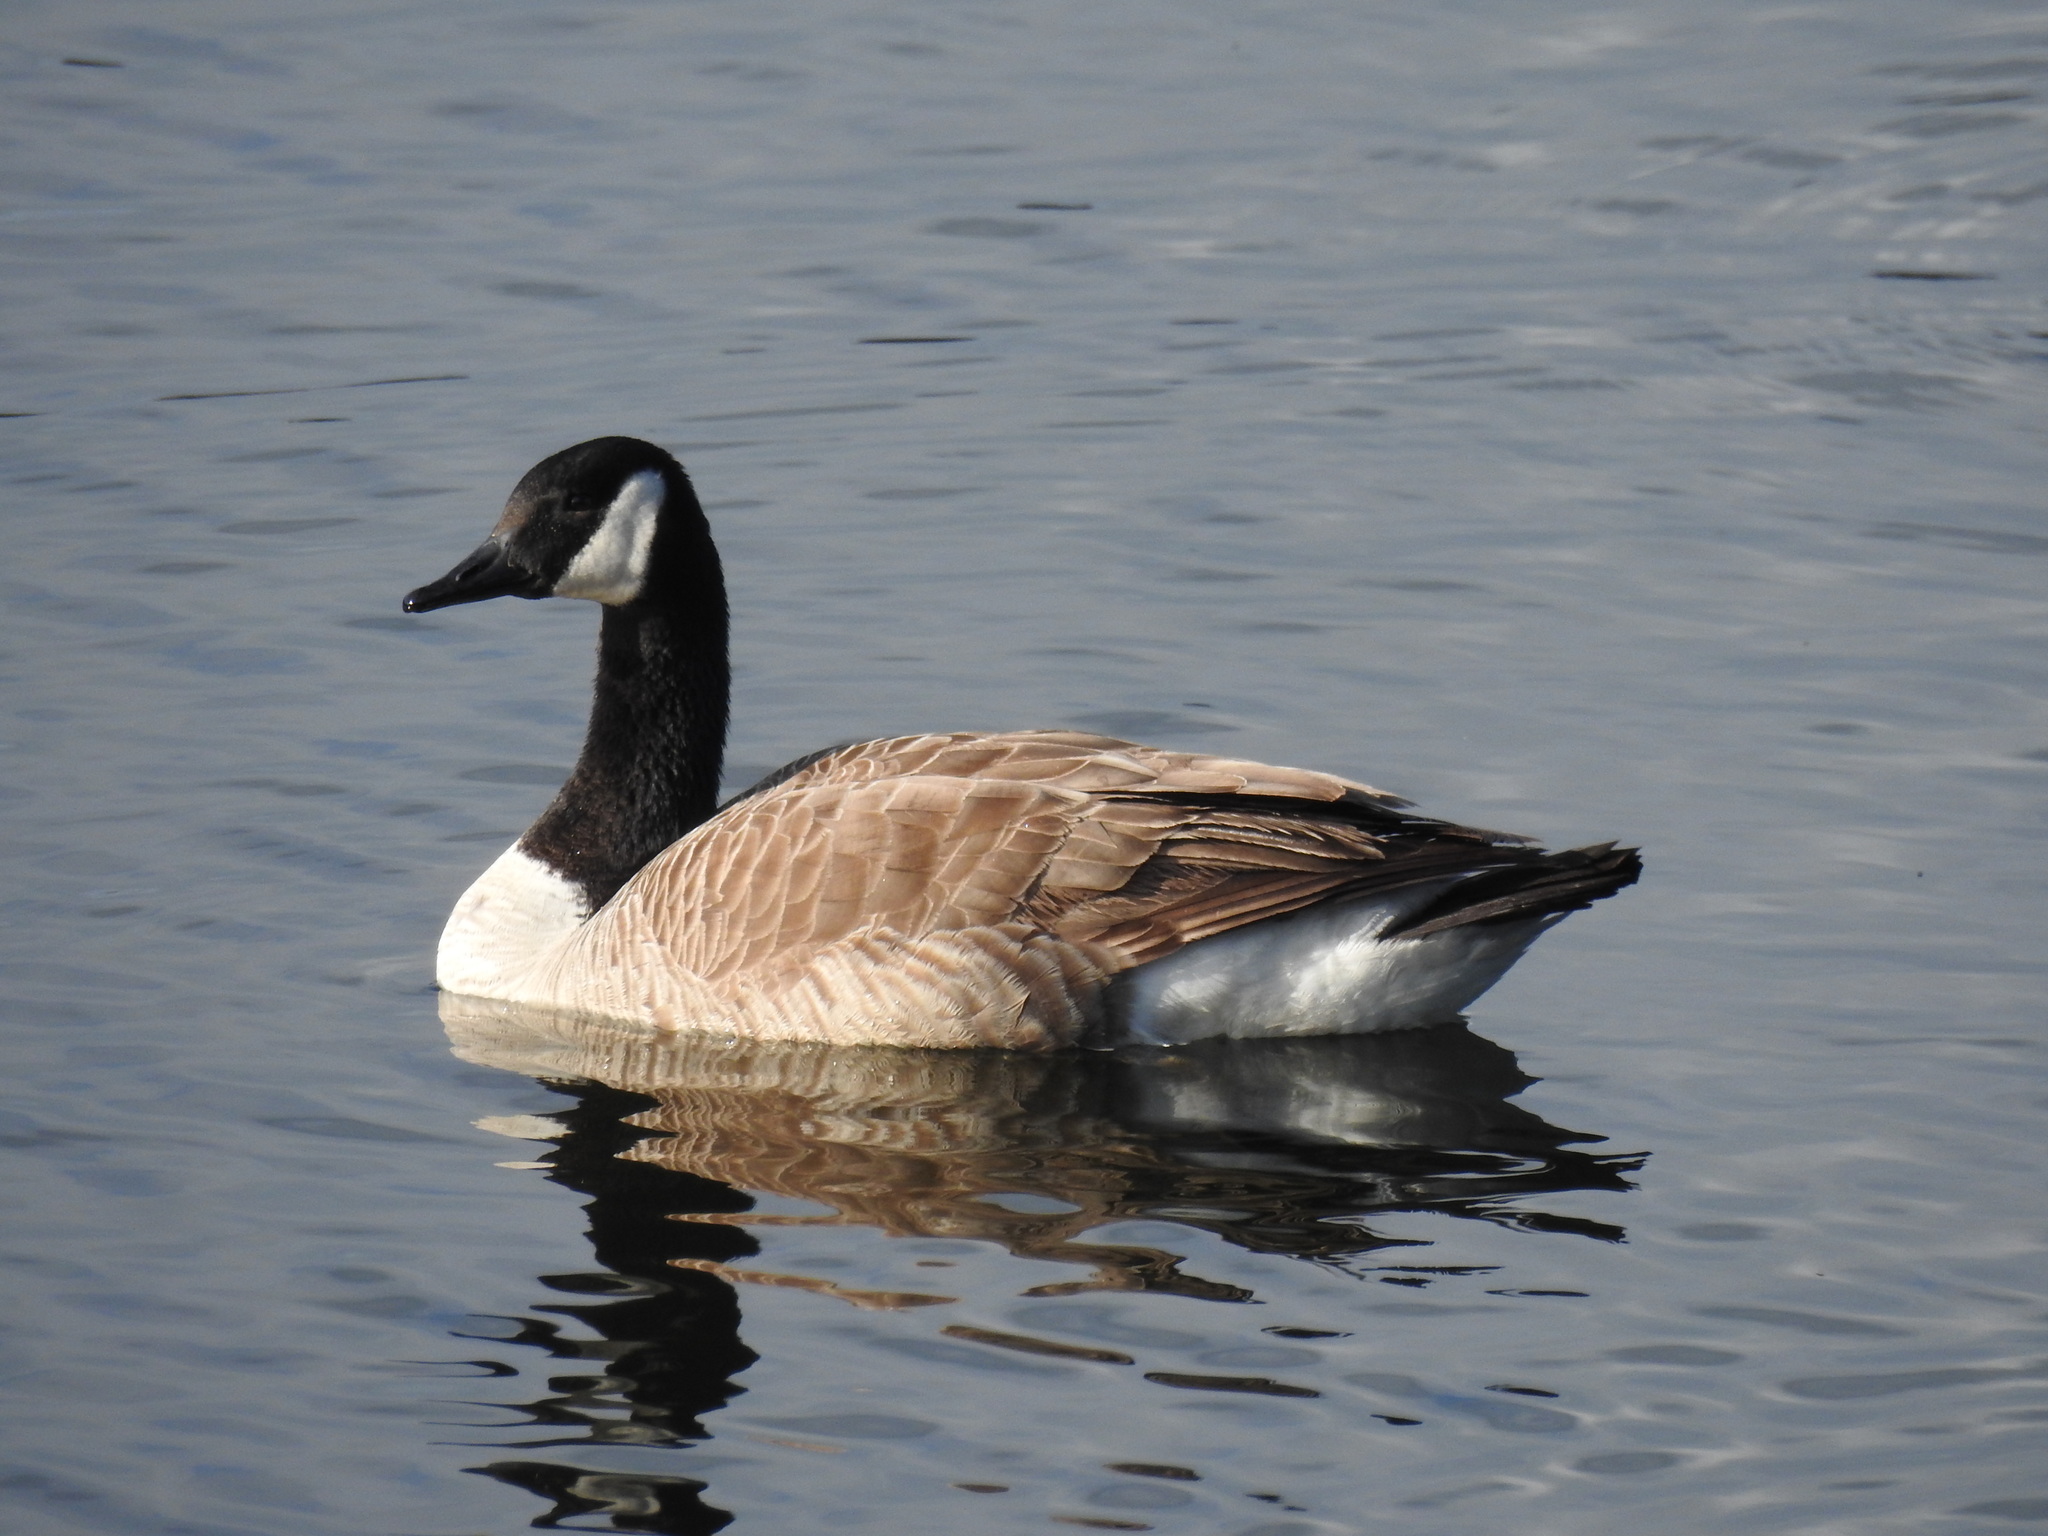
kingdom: Animalia
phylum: Chordata
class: Aves
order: Anseriformes
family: Anatidae
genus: Branta
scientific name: Branta canadensis
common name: Canada goose
